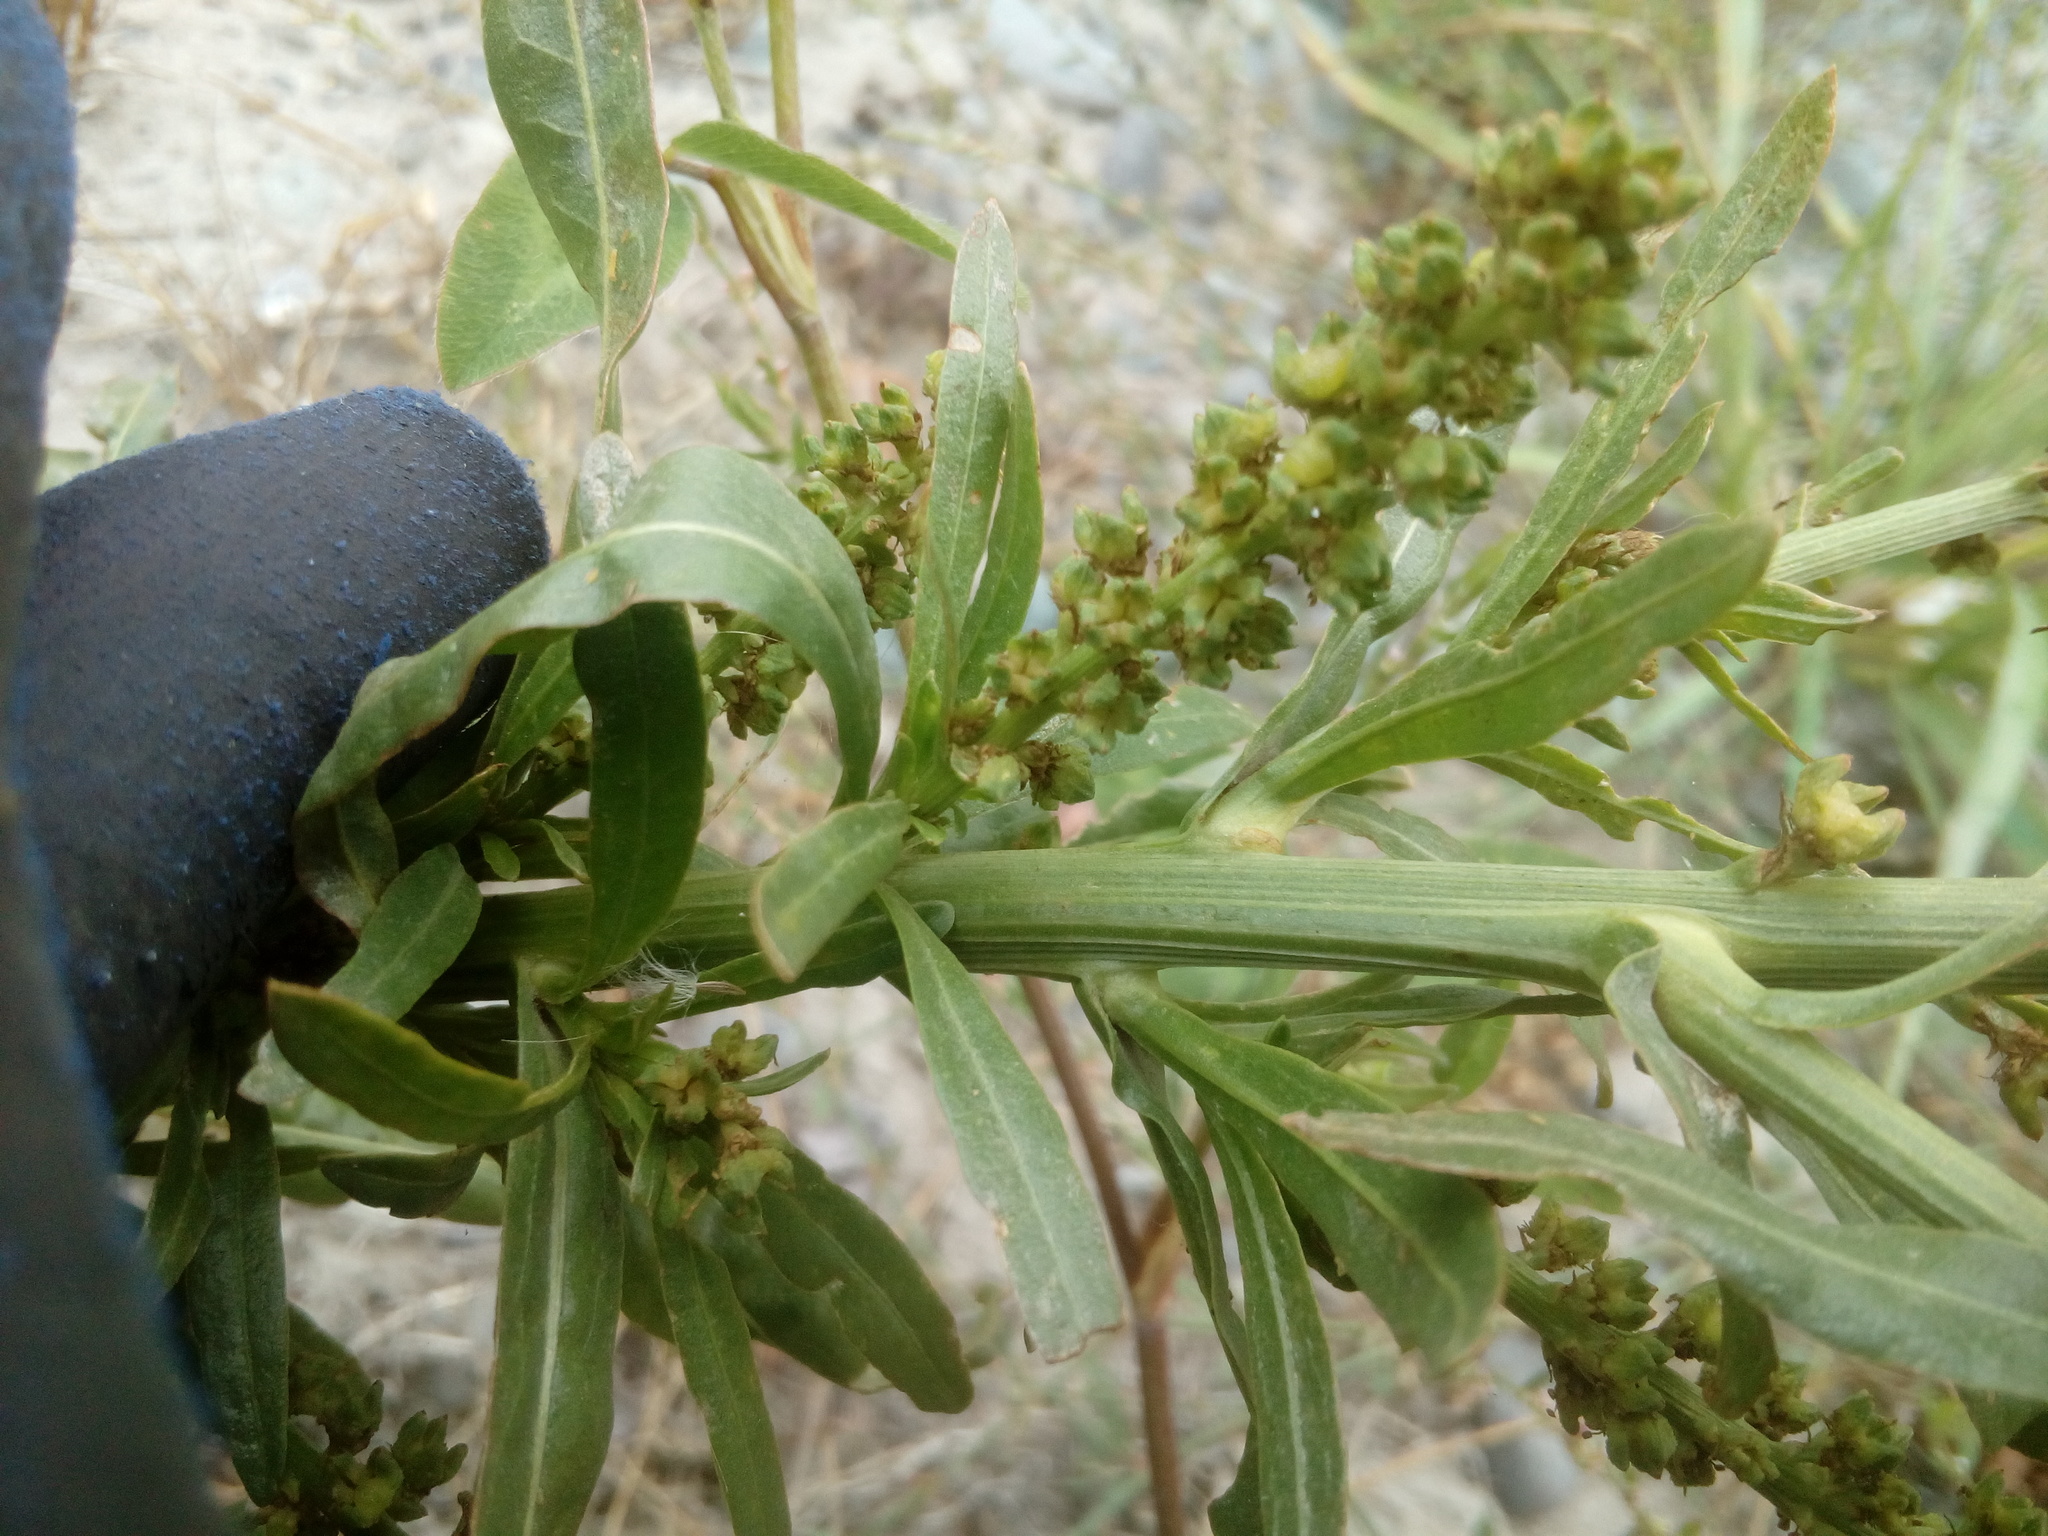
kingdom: Plantae
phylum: Tracheophyta
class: Magnoliopsida
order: Brassicales
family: Resedaceae
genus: Reseda
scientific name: Reseda luteola
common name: Weld
